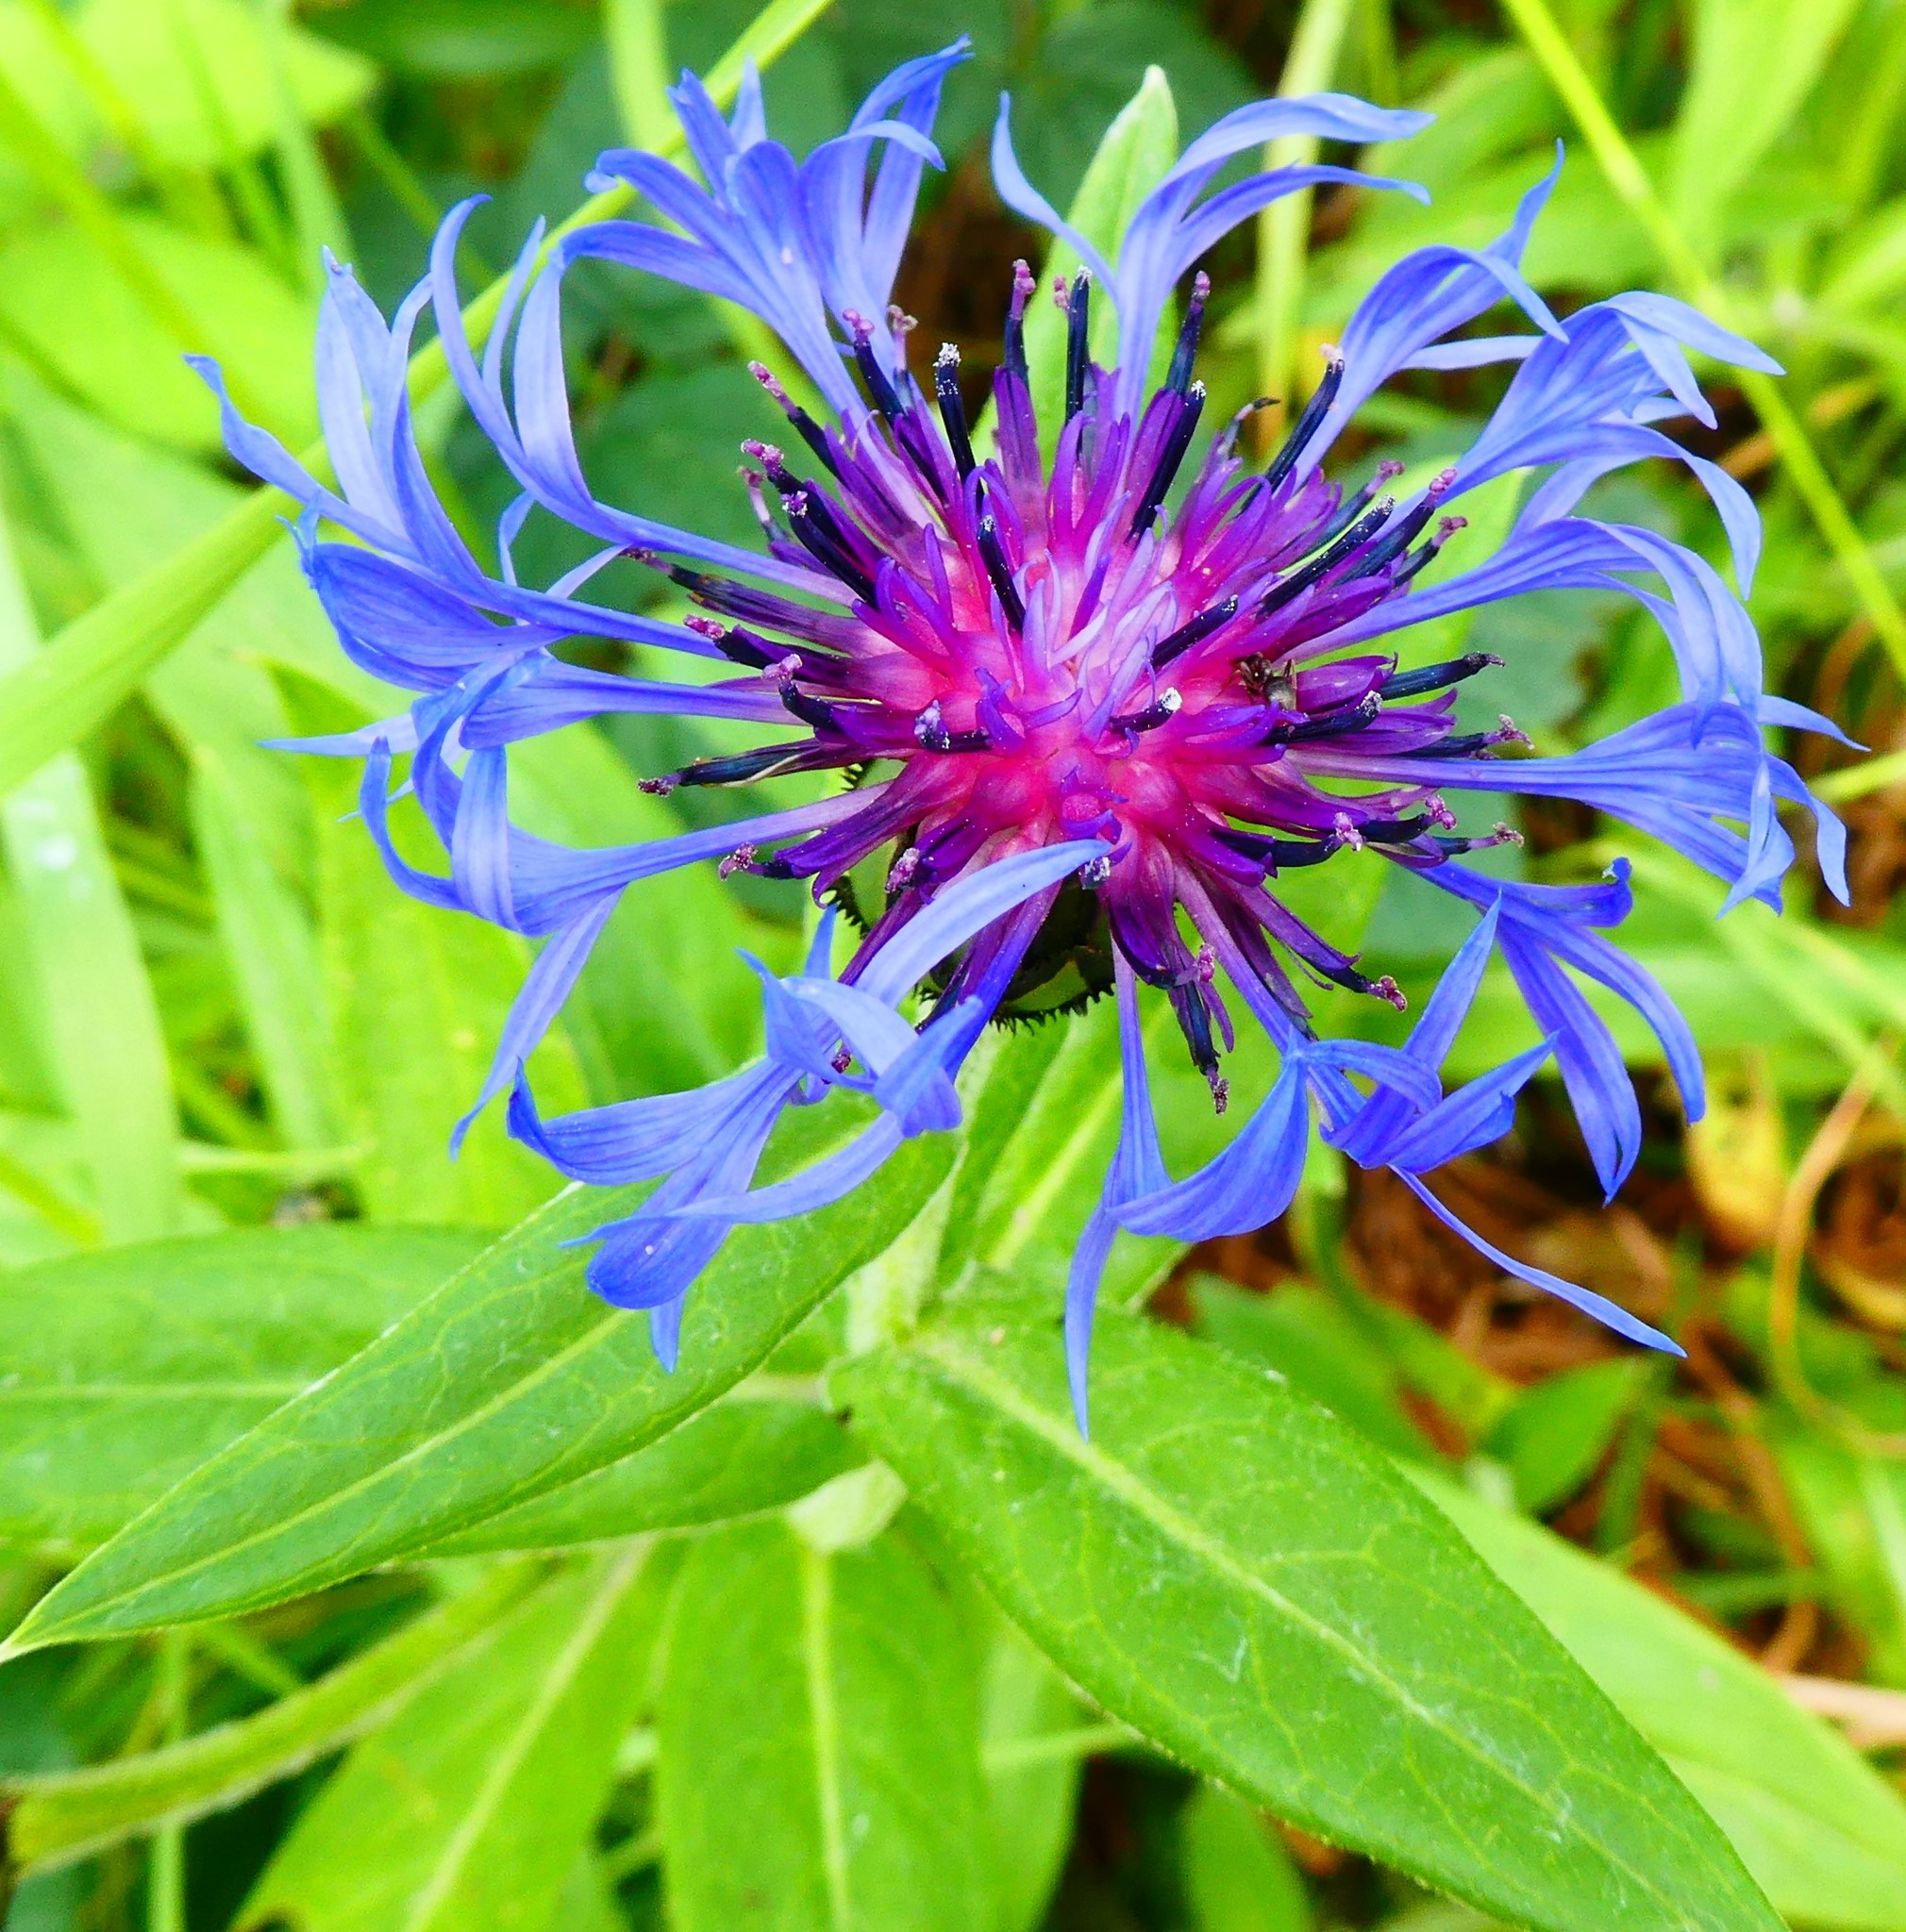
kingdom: Plantae
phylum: Tracheophyta
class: Magnoliopsida
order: Asterales
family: Asteraceae
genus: Centaurea
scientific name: Centaurea montana
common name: Perennial cornflower
